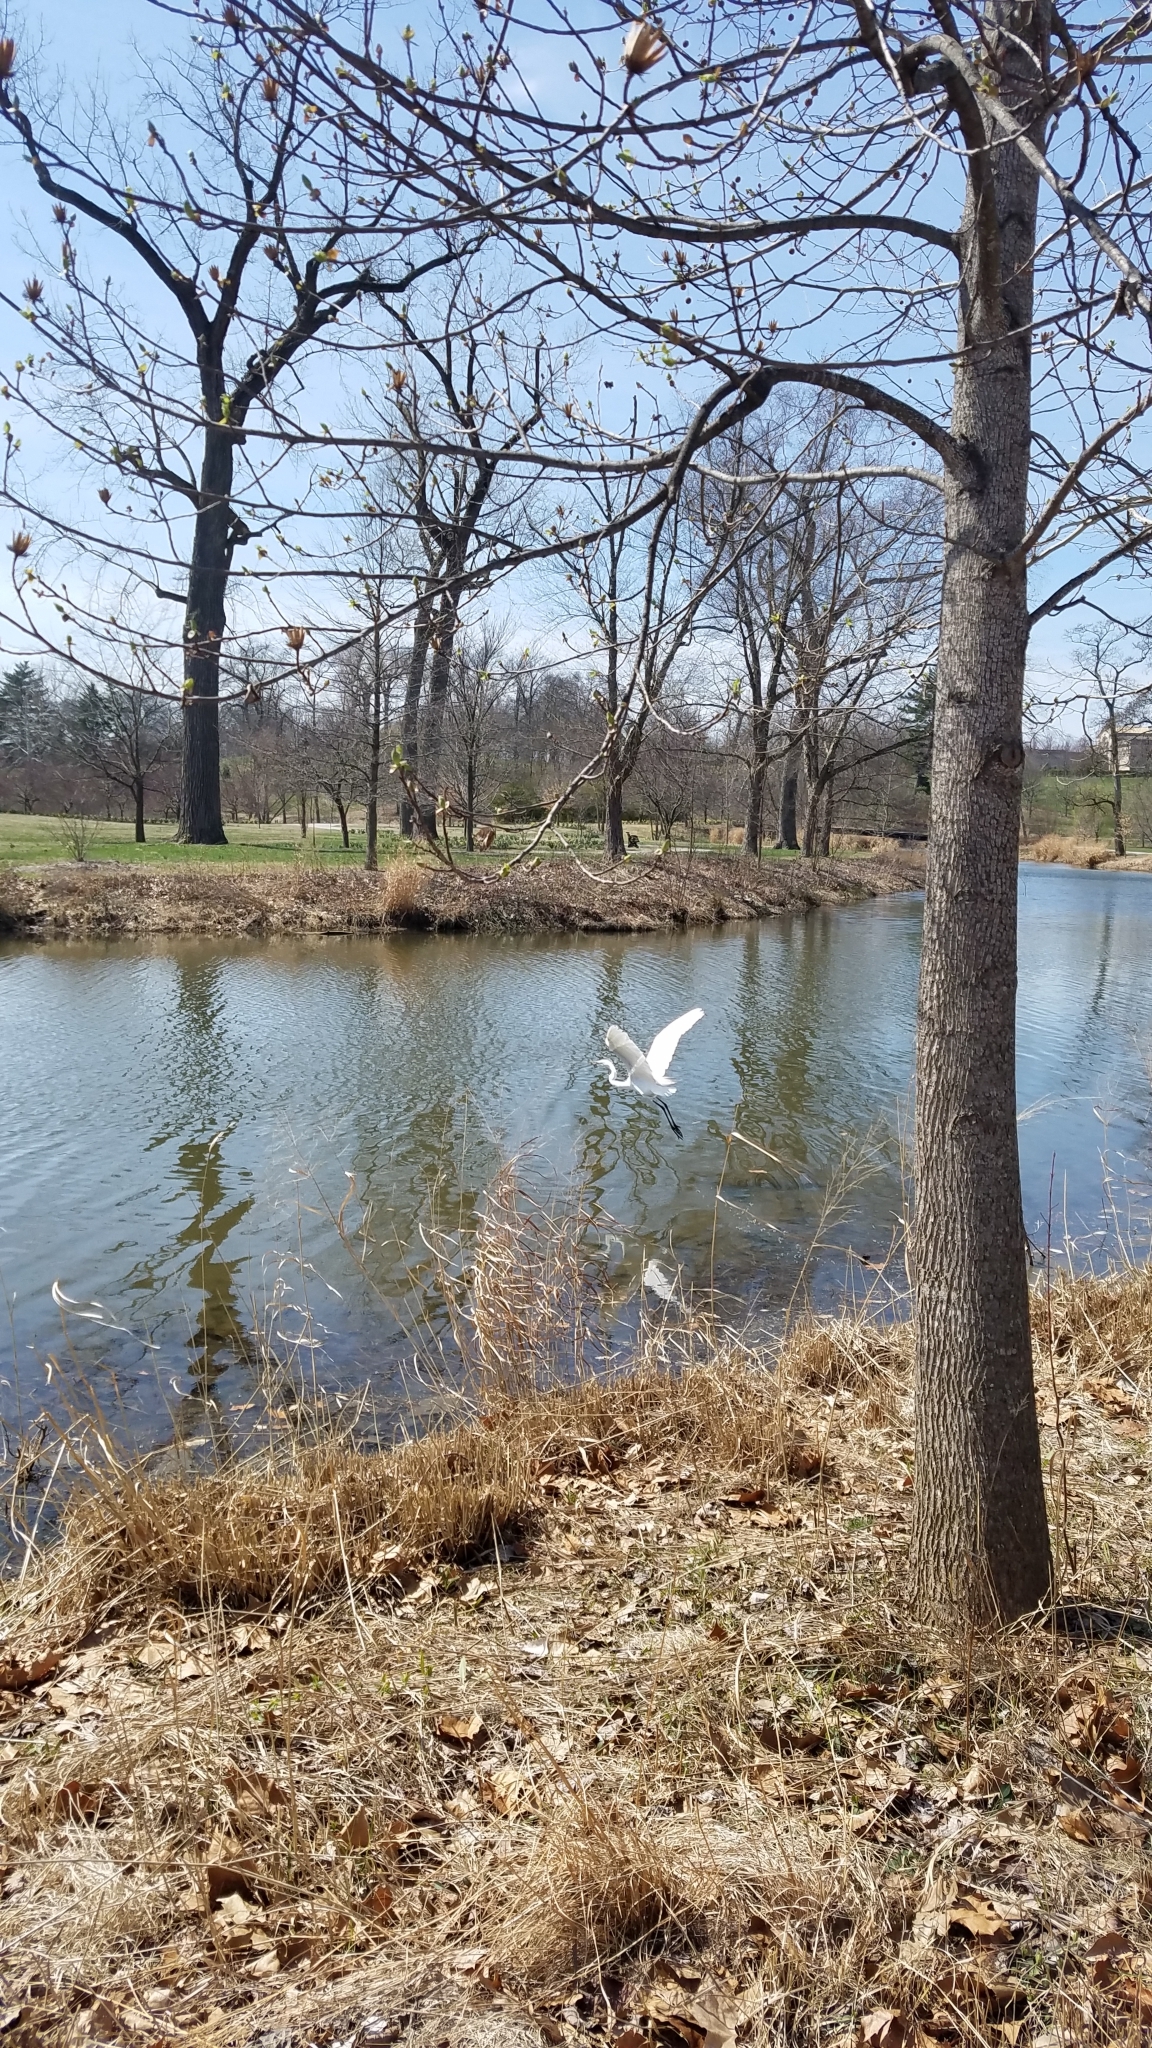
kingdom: Animalia
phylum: Chordata
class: Aves
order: Pelecaniformes
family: Ardeidae
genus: Ardea
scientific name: Ardea alba
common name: Great egret
